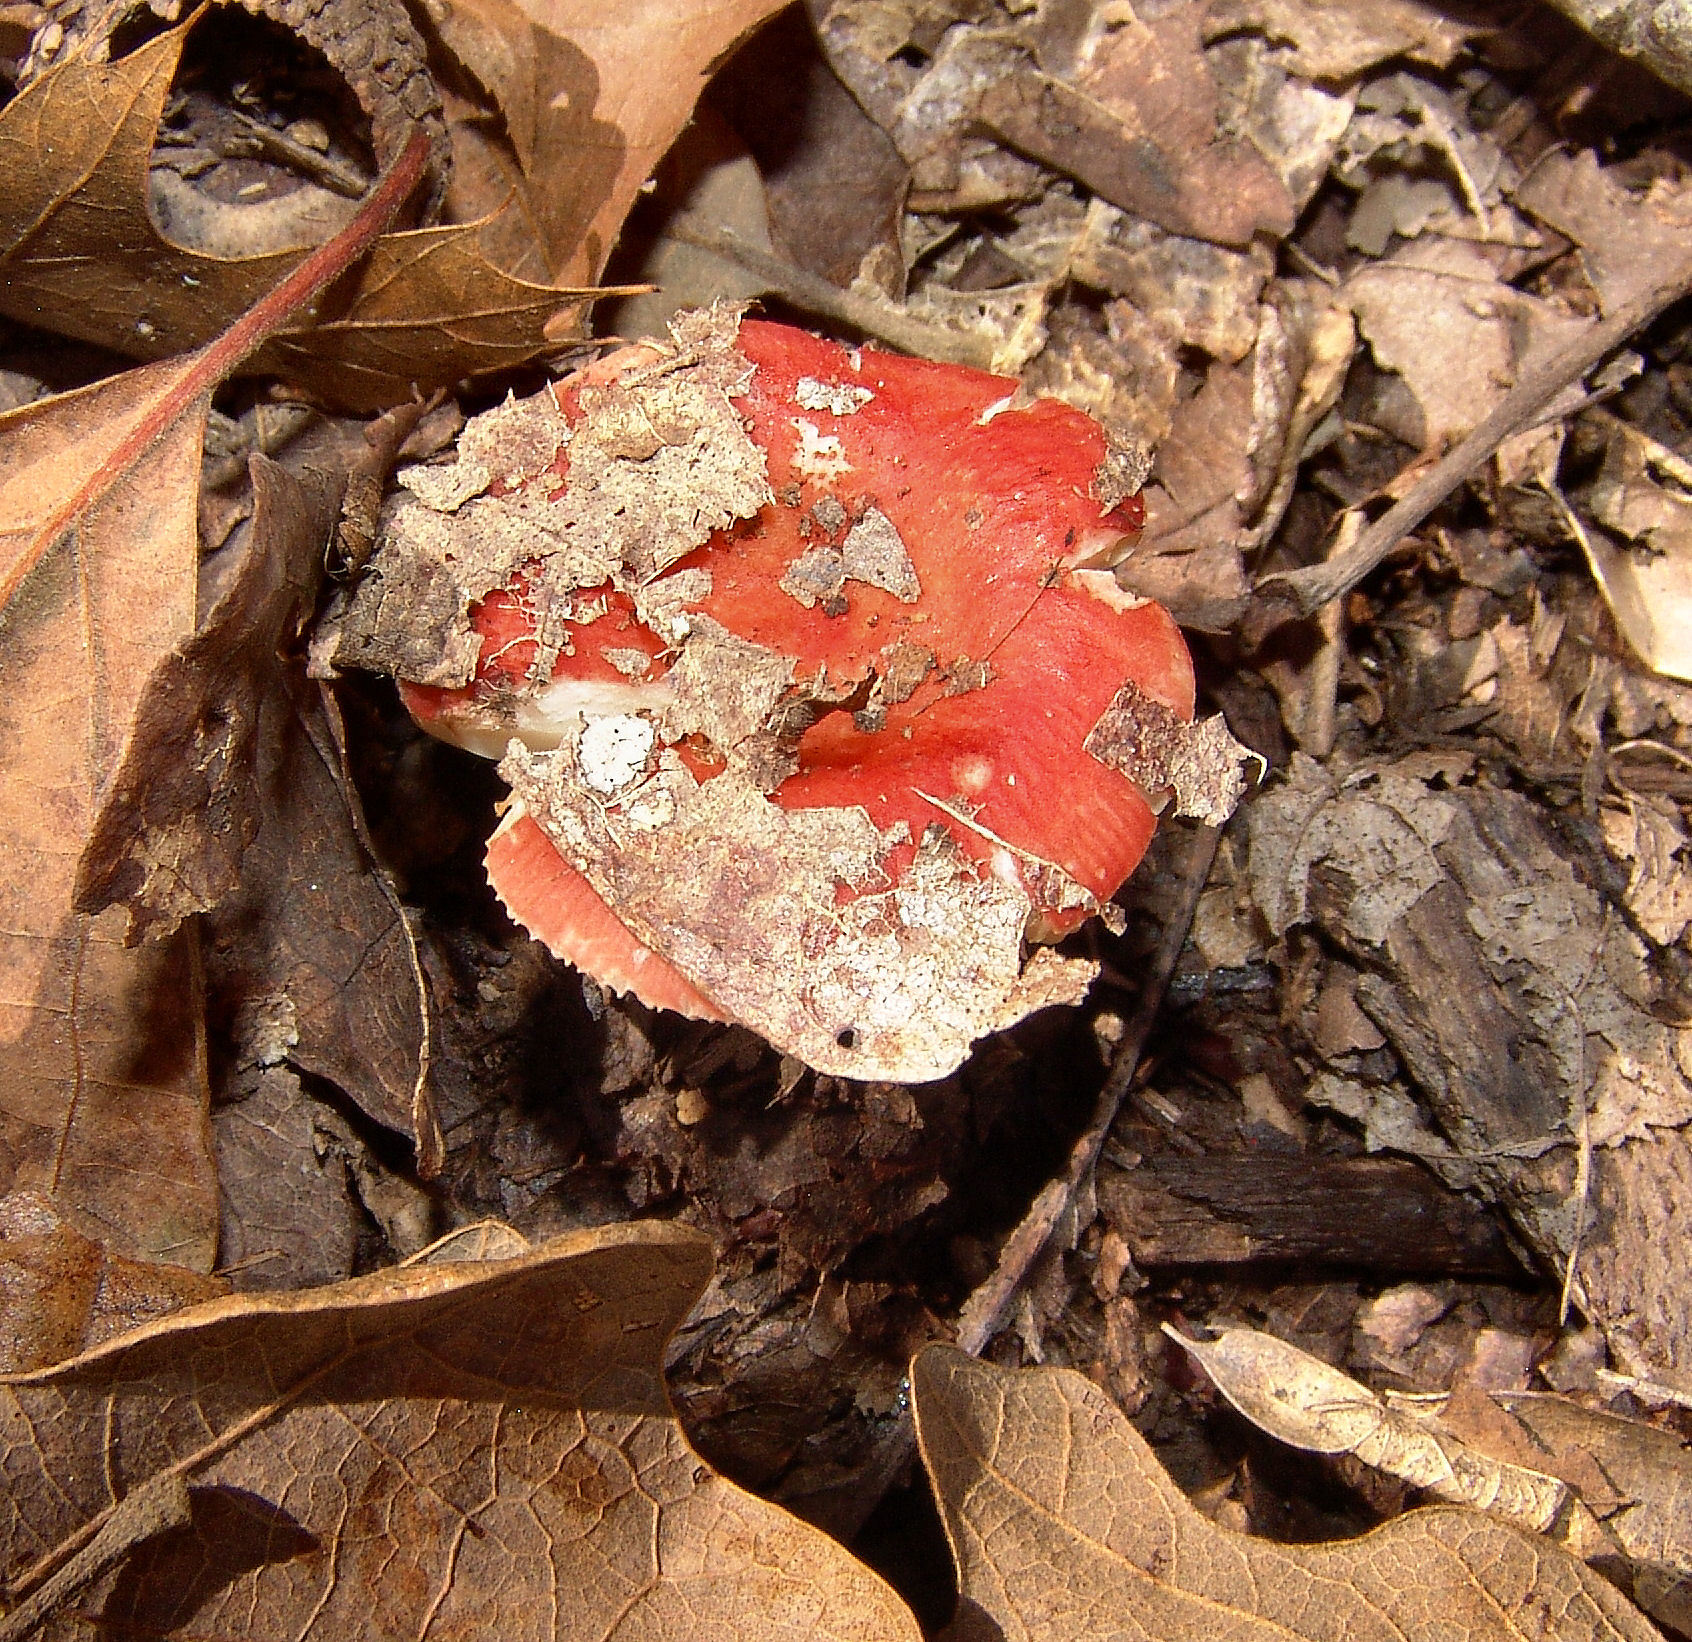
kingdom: Fungi
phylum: Basidiomycota
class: Agaricomycetes
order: Russulales
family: Russulaceae
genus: Russula
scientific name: Russula
